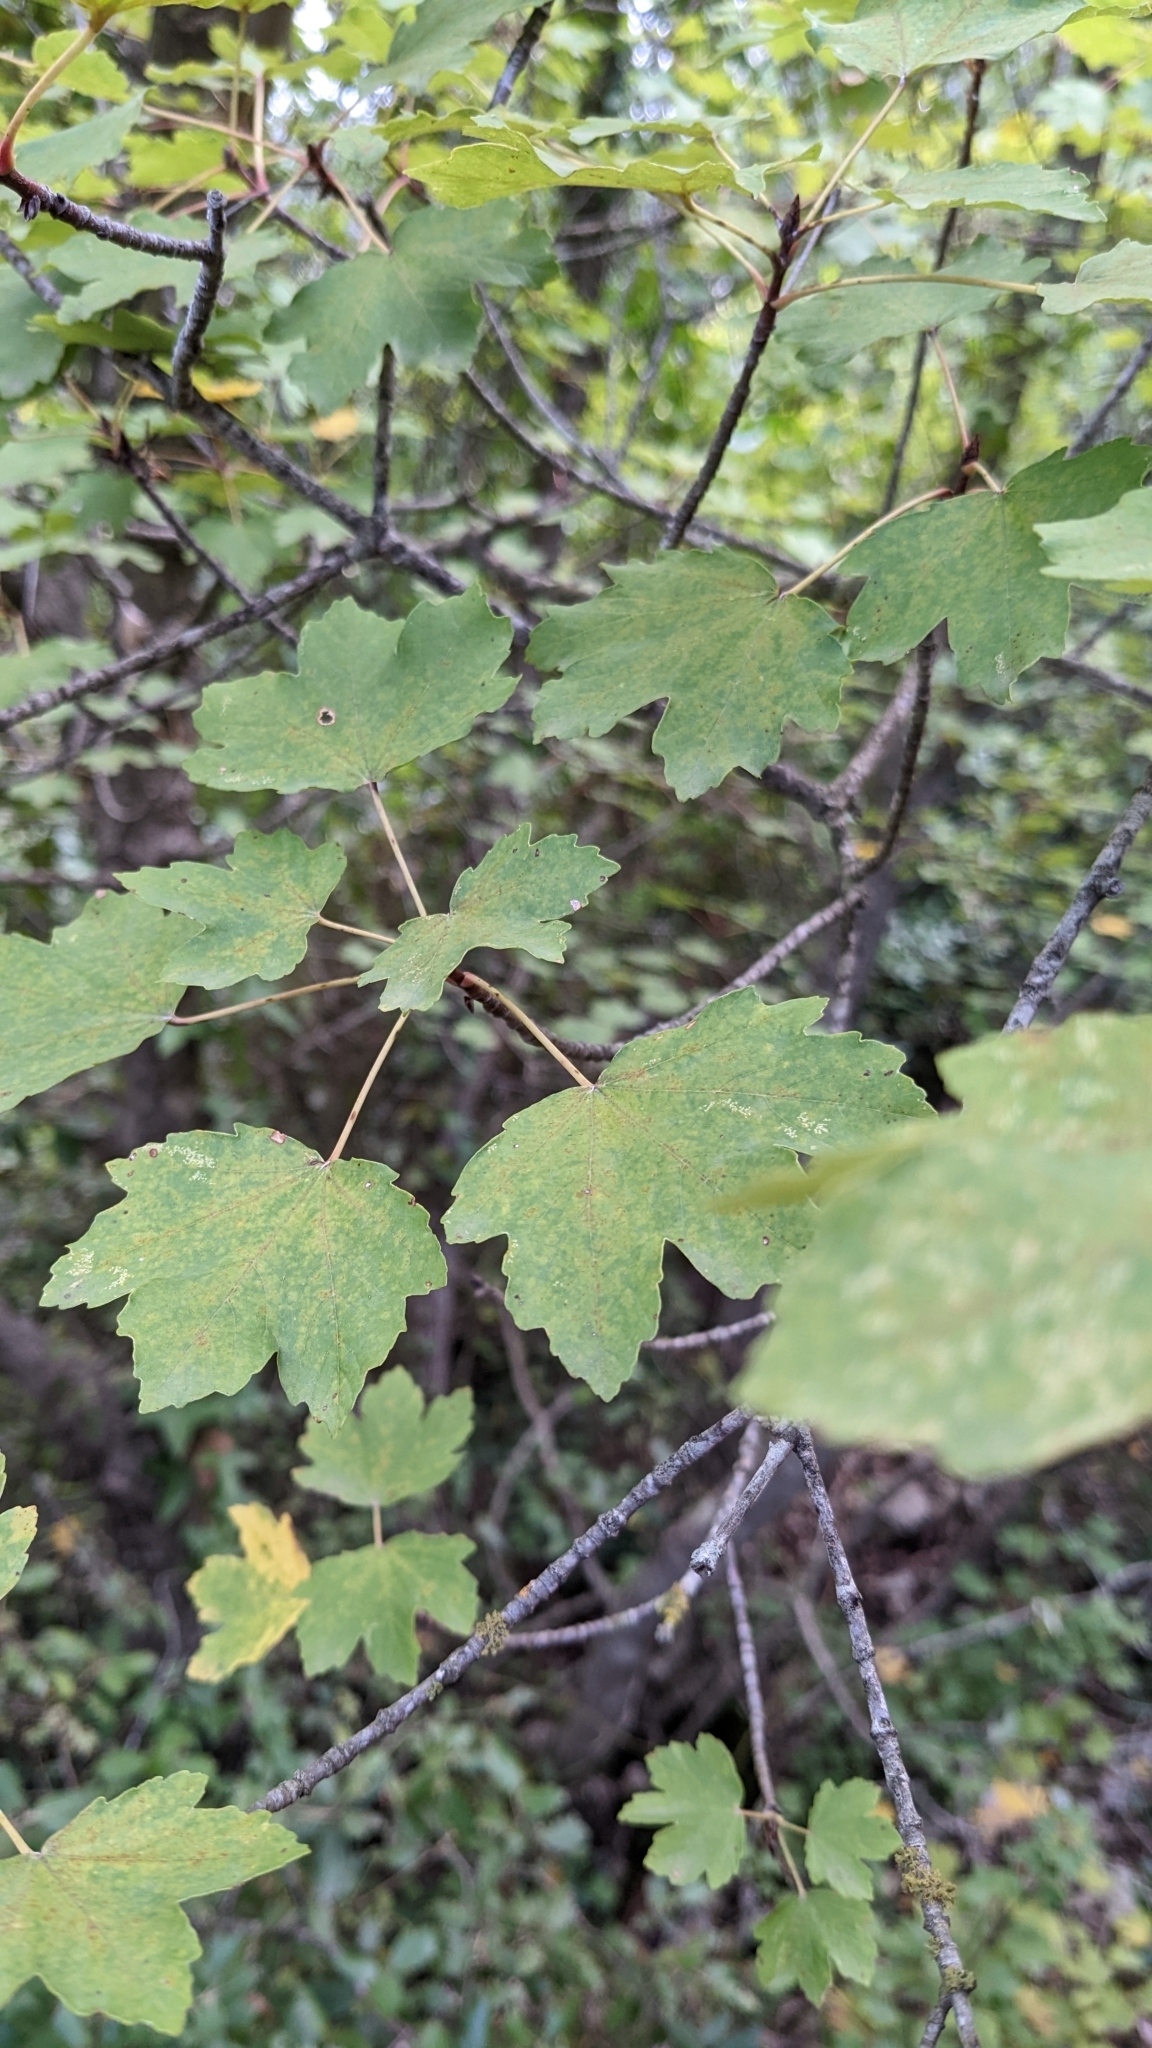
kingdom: Plantae
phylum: Tracheophyta
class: Magnoliopsida
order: Sapindales
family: Sapindaceae
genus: Acer
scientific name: Acer opalus
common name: Italian maple
